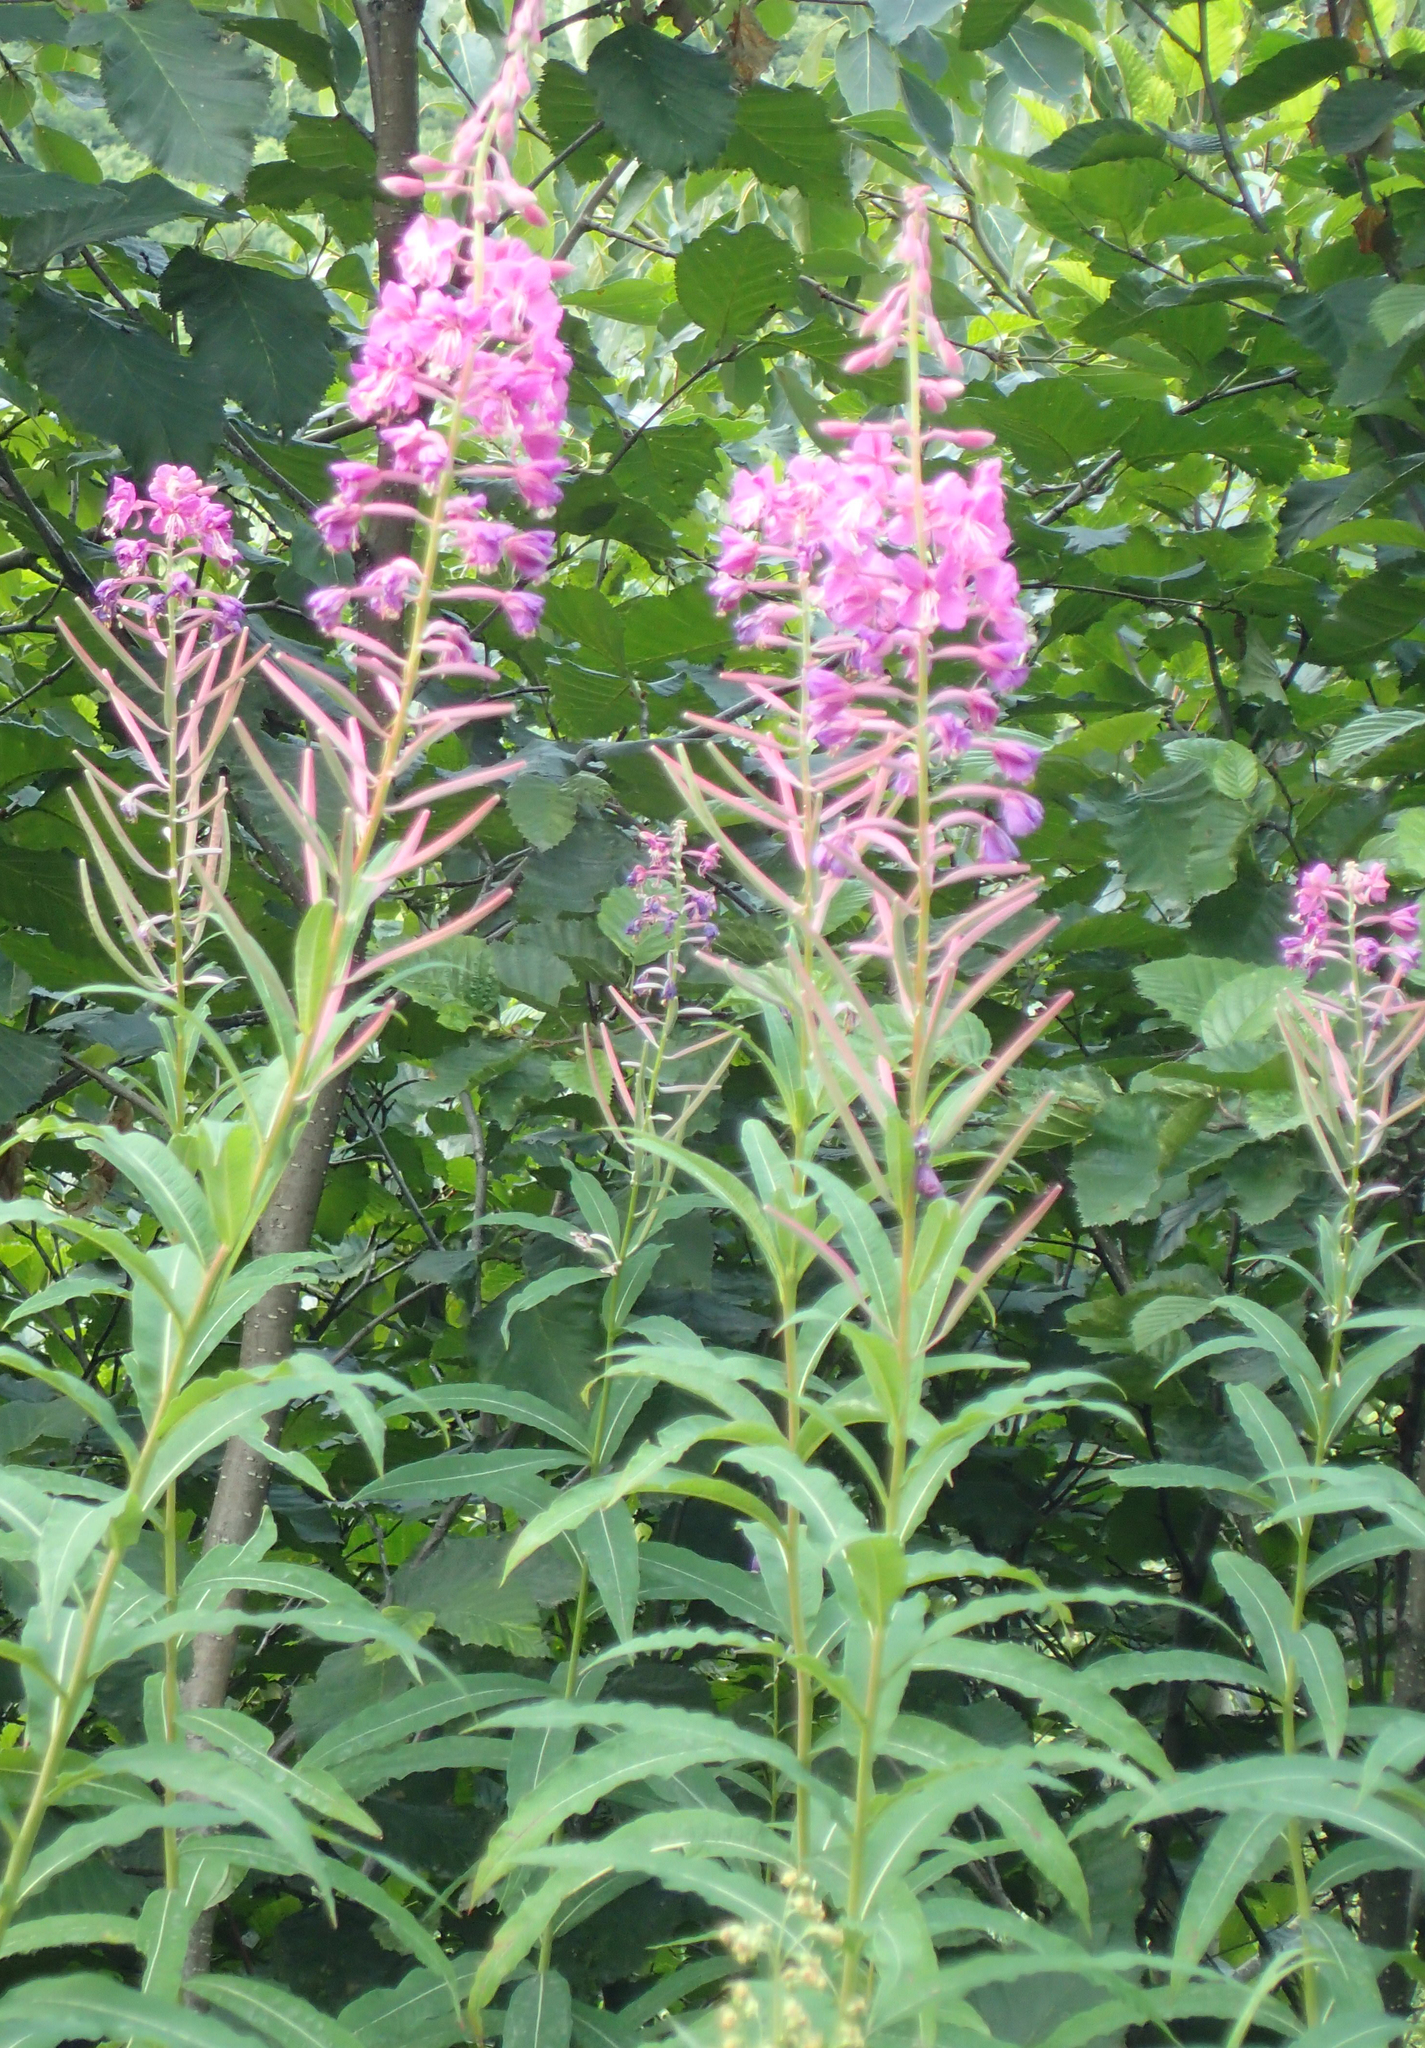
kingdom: Plantae
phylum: Tracheophyta
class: Magnoliopsida
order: Myrtales
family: Onagraceae
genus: Chamaenerion
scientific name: Chamaenerion angustifolium
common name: Fireweed
